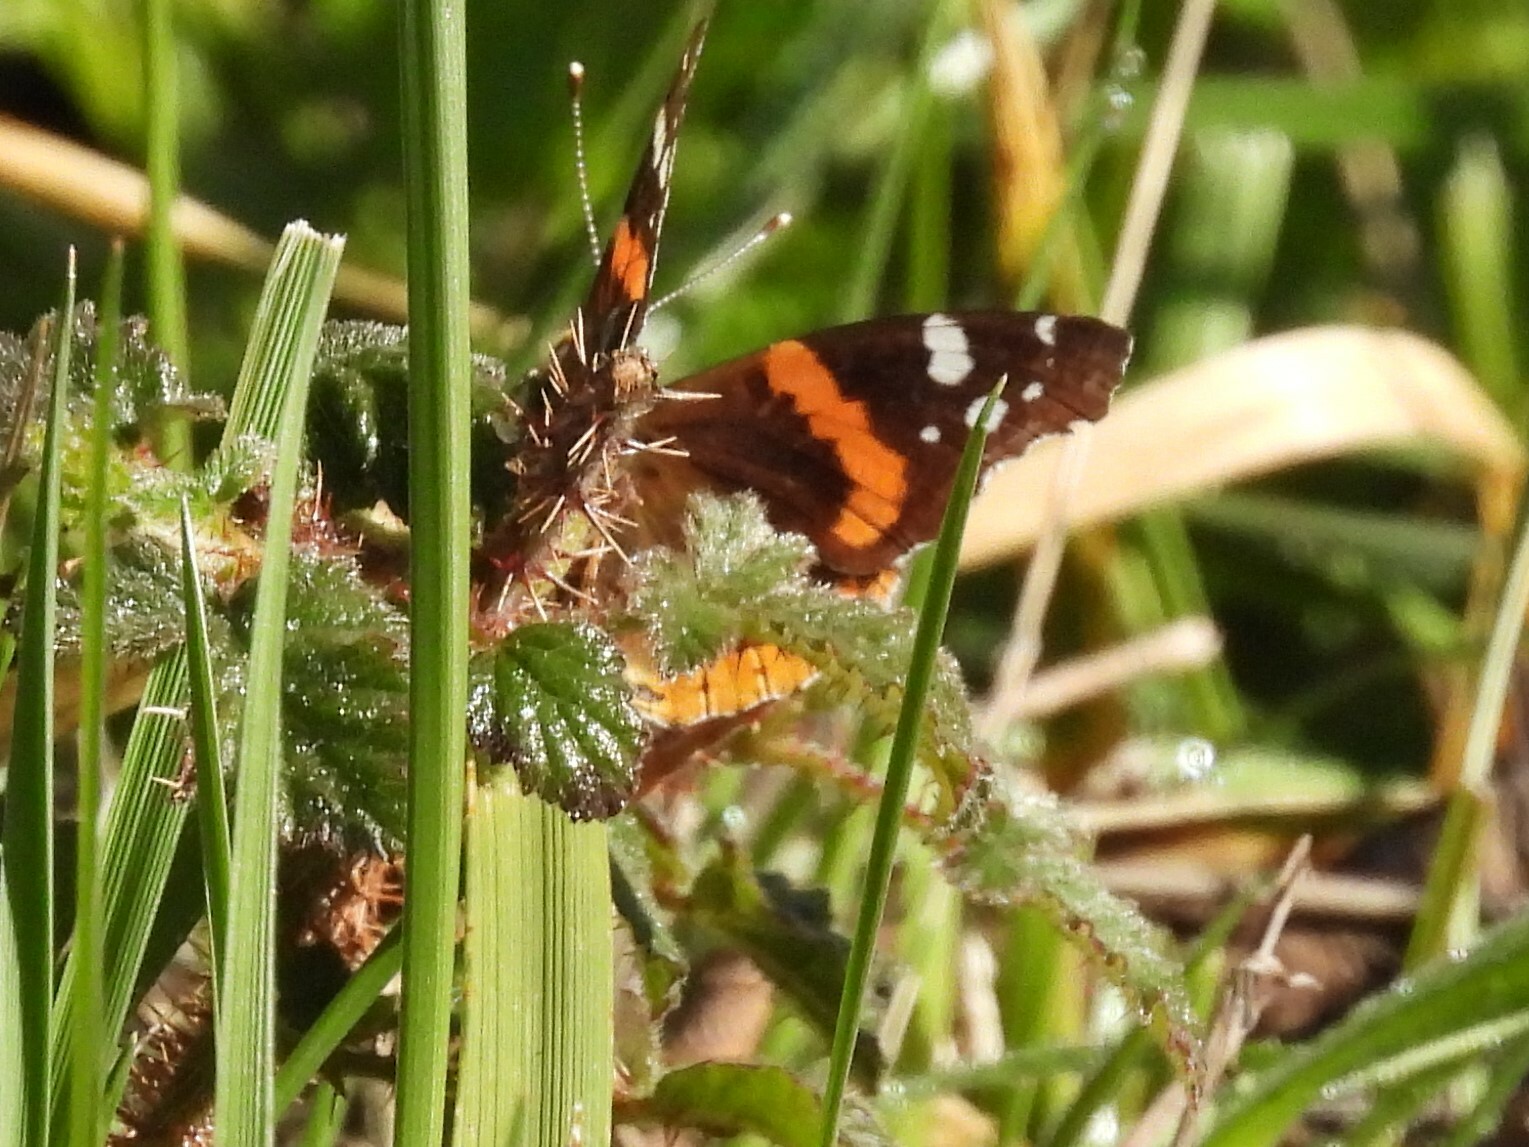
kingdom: Animalia
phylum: Arthropoda
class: Insecta
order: Lepidoptera
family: Nymphalidae
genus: Vanessa
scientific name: Vanessa atalanta
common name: Red admiral
